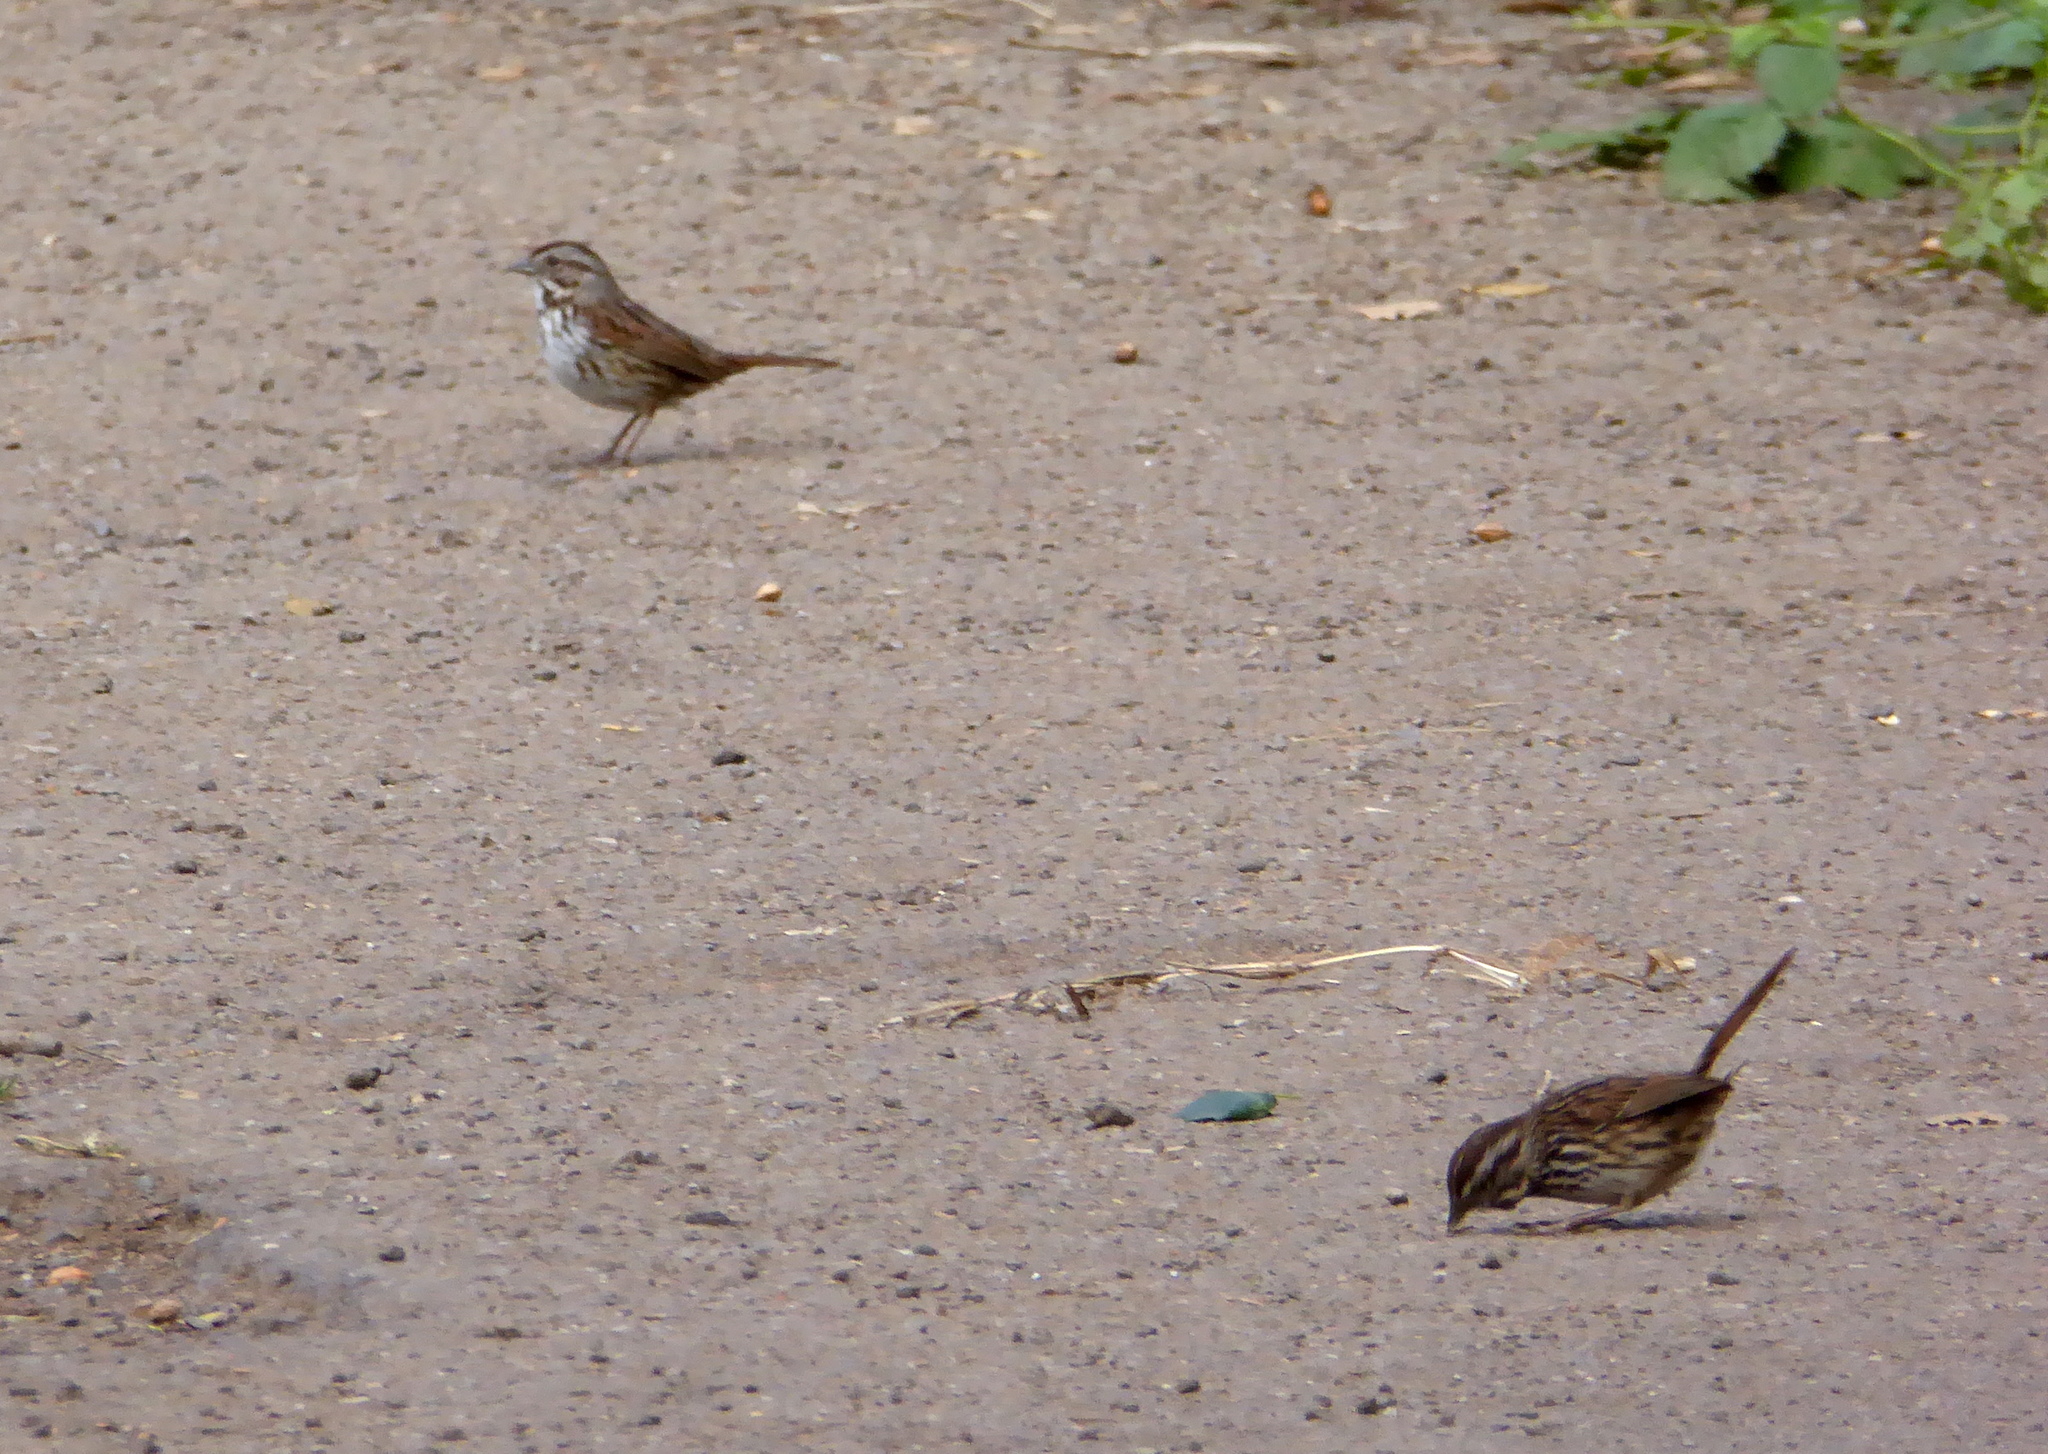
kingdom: Animalia
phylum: Chordata
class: Aves
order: Passeriformes
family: Passerellidae
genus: Melospiza
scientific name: Melospiza melodia
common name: Song sparrow
